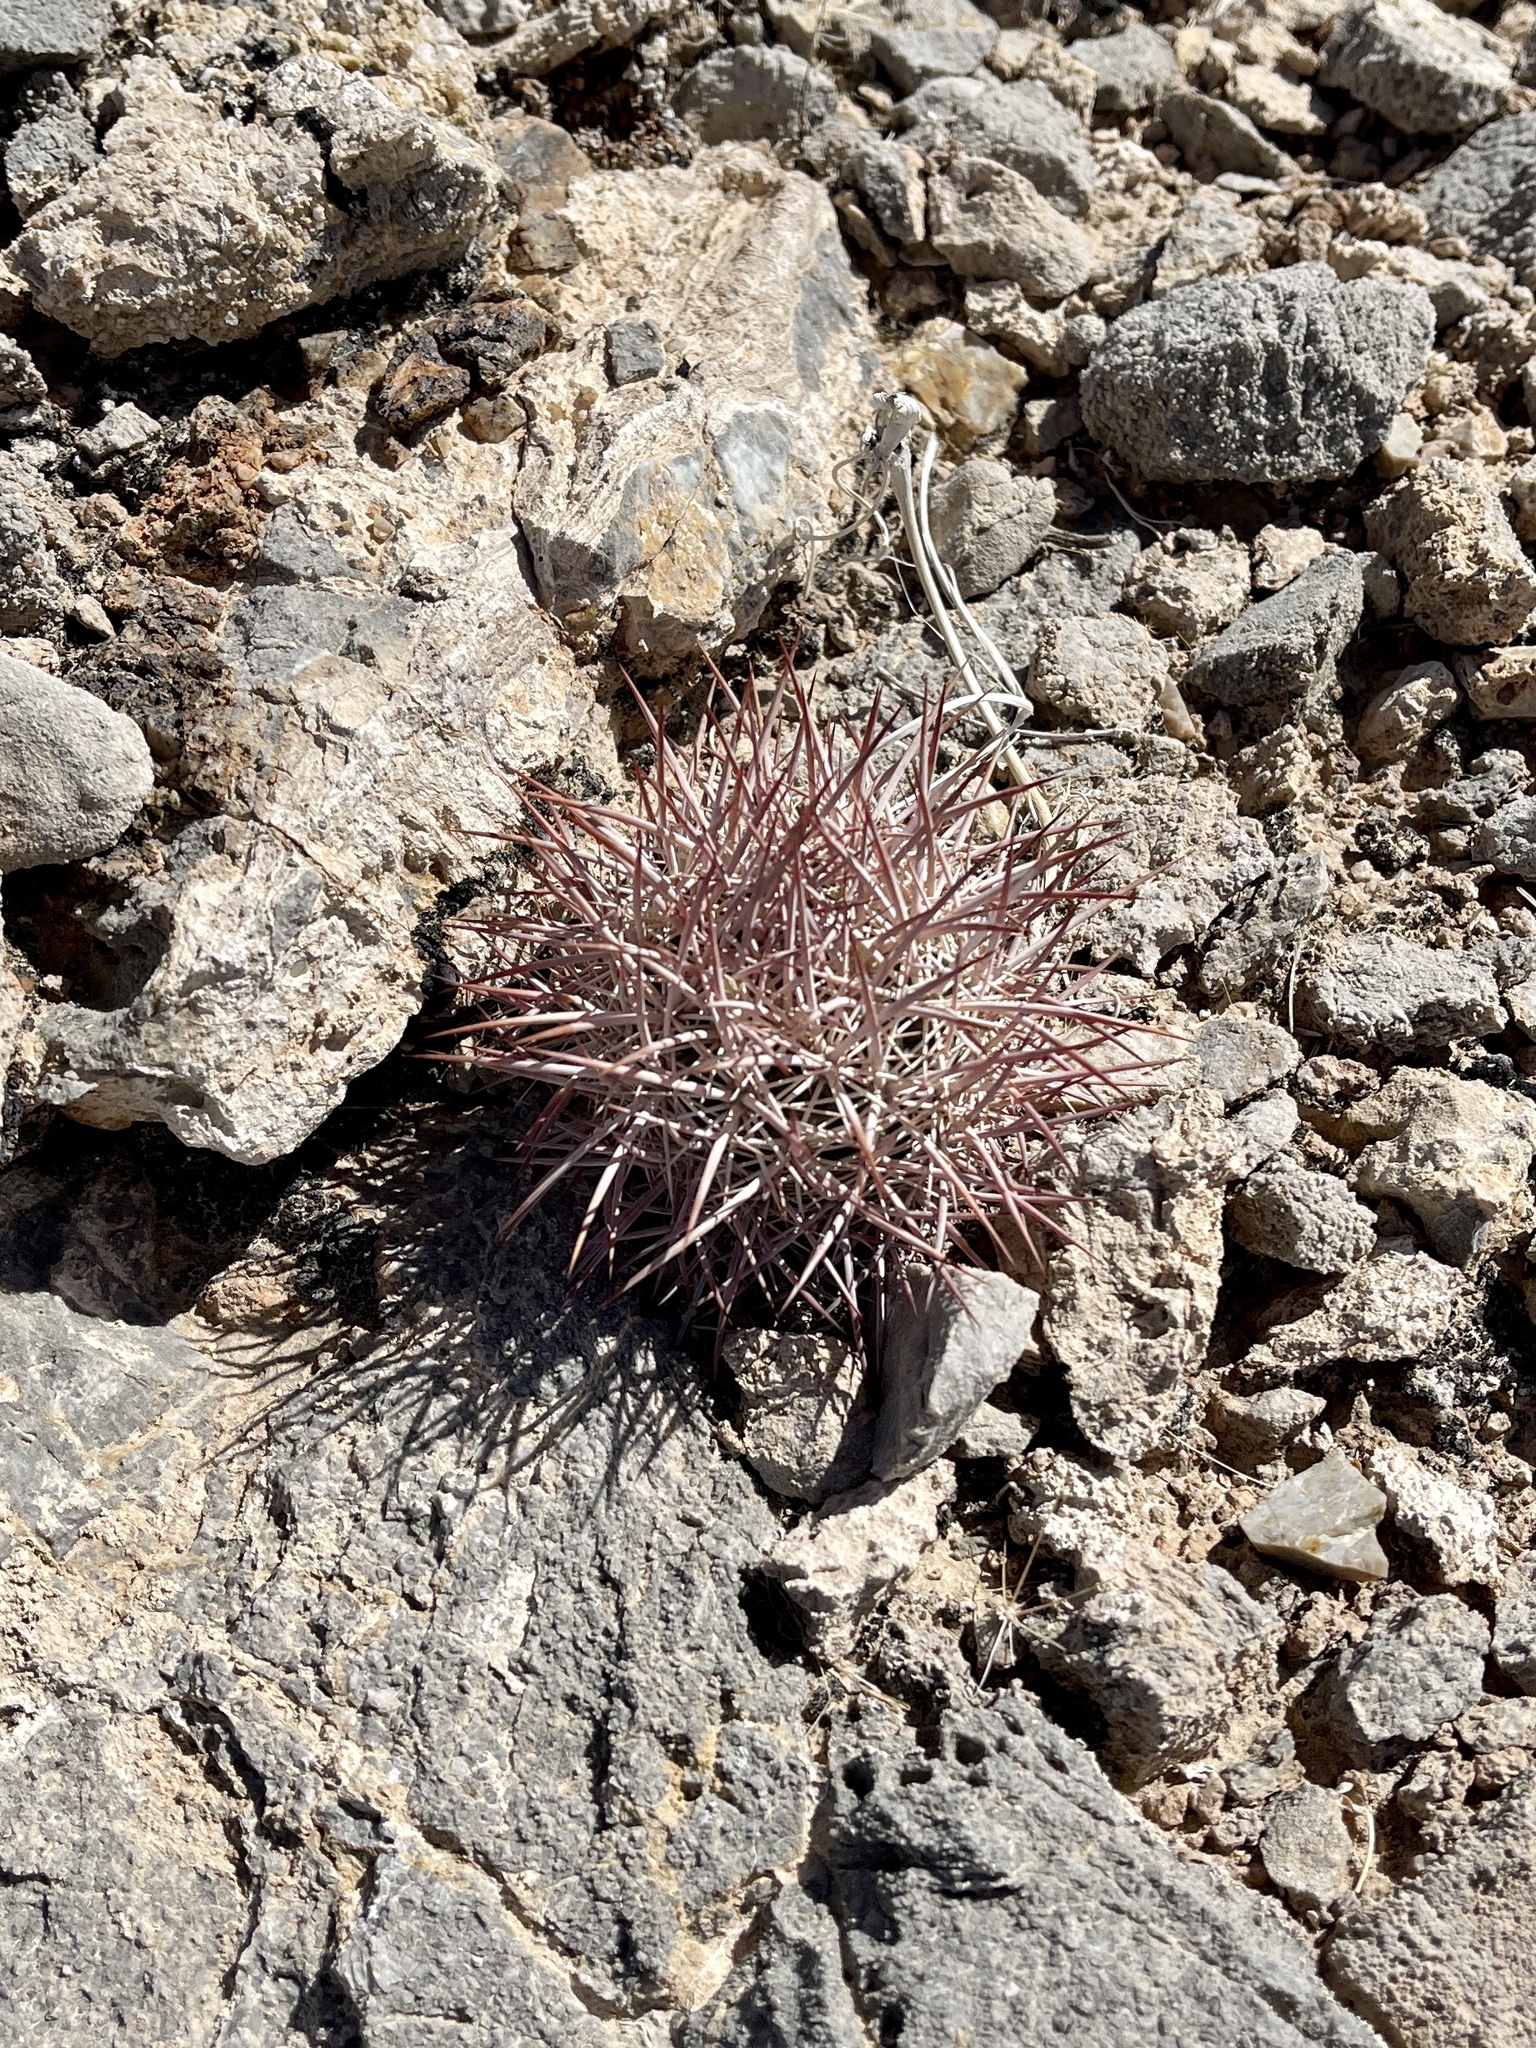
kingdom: Plantae
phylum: Tracheophyta
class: Magnoliopsida
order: Caryophyllales
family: Cactaceae
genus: Sclerocactus
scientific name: Sclerocactus johnsonii
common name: Eight-spine fishhook cactus
